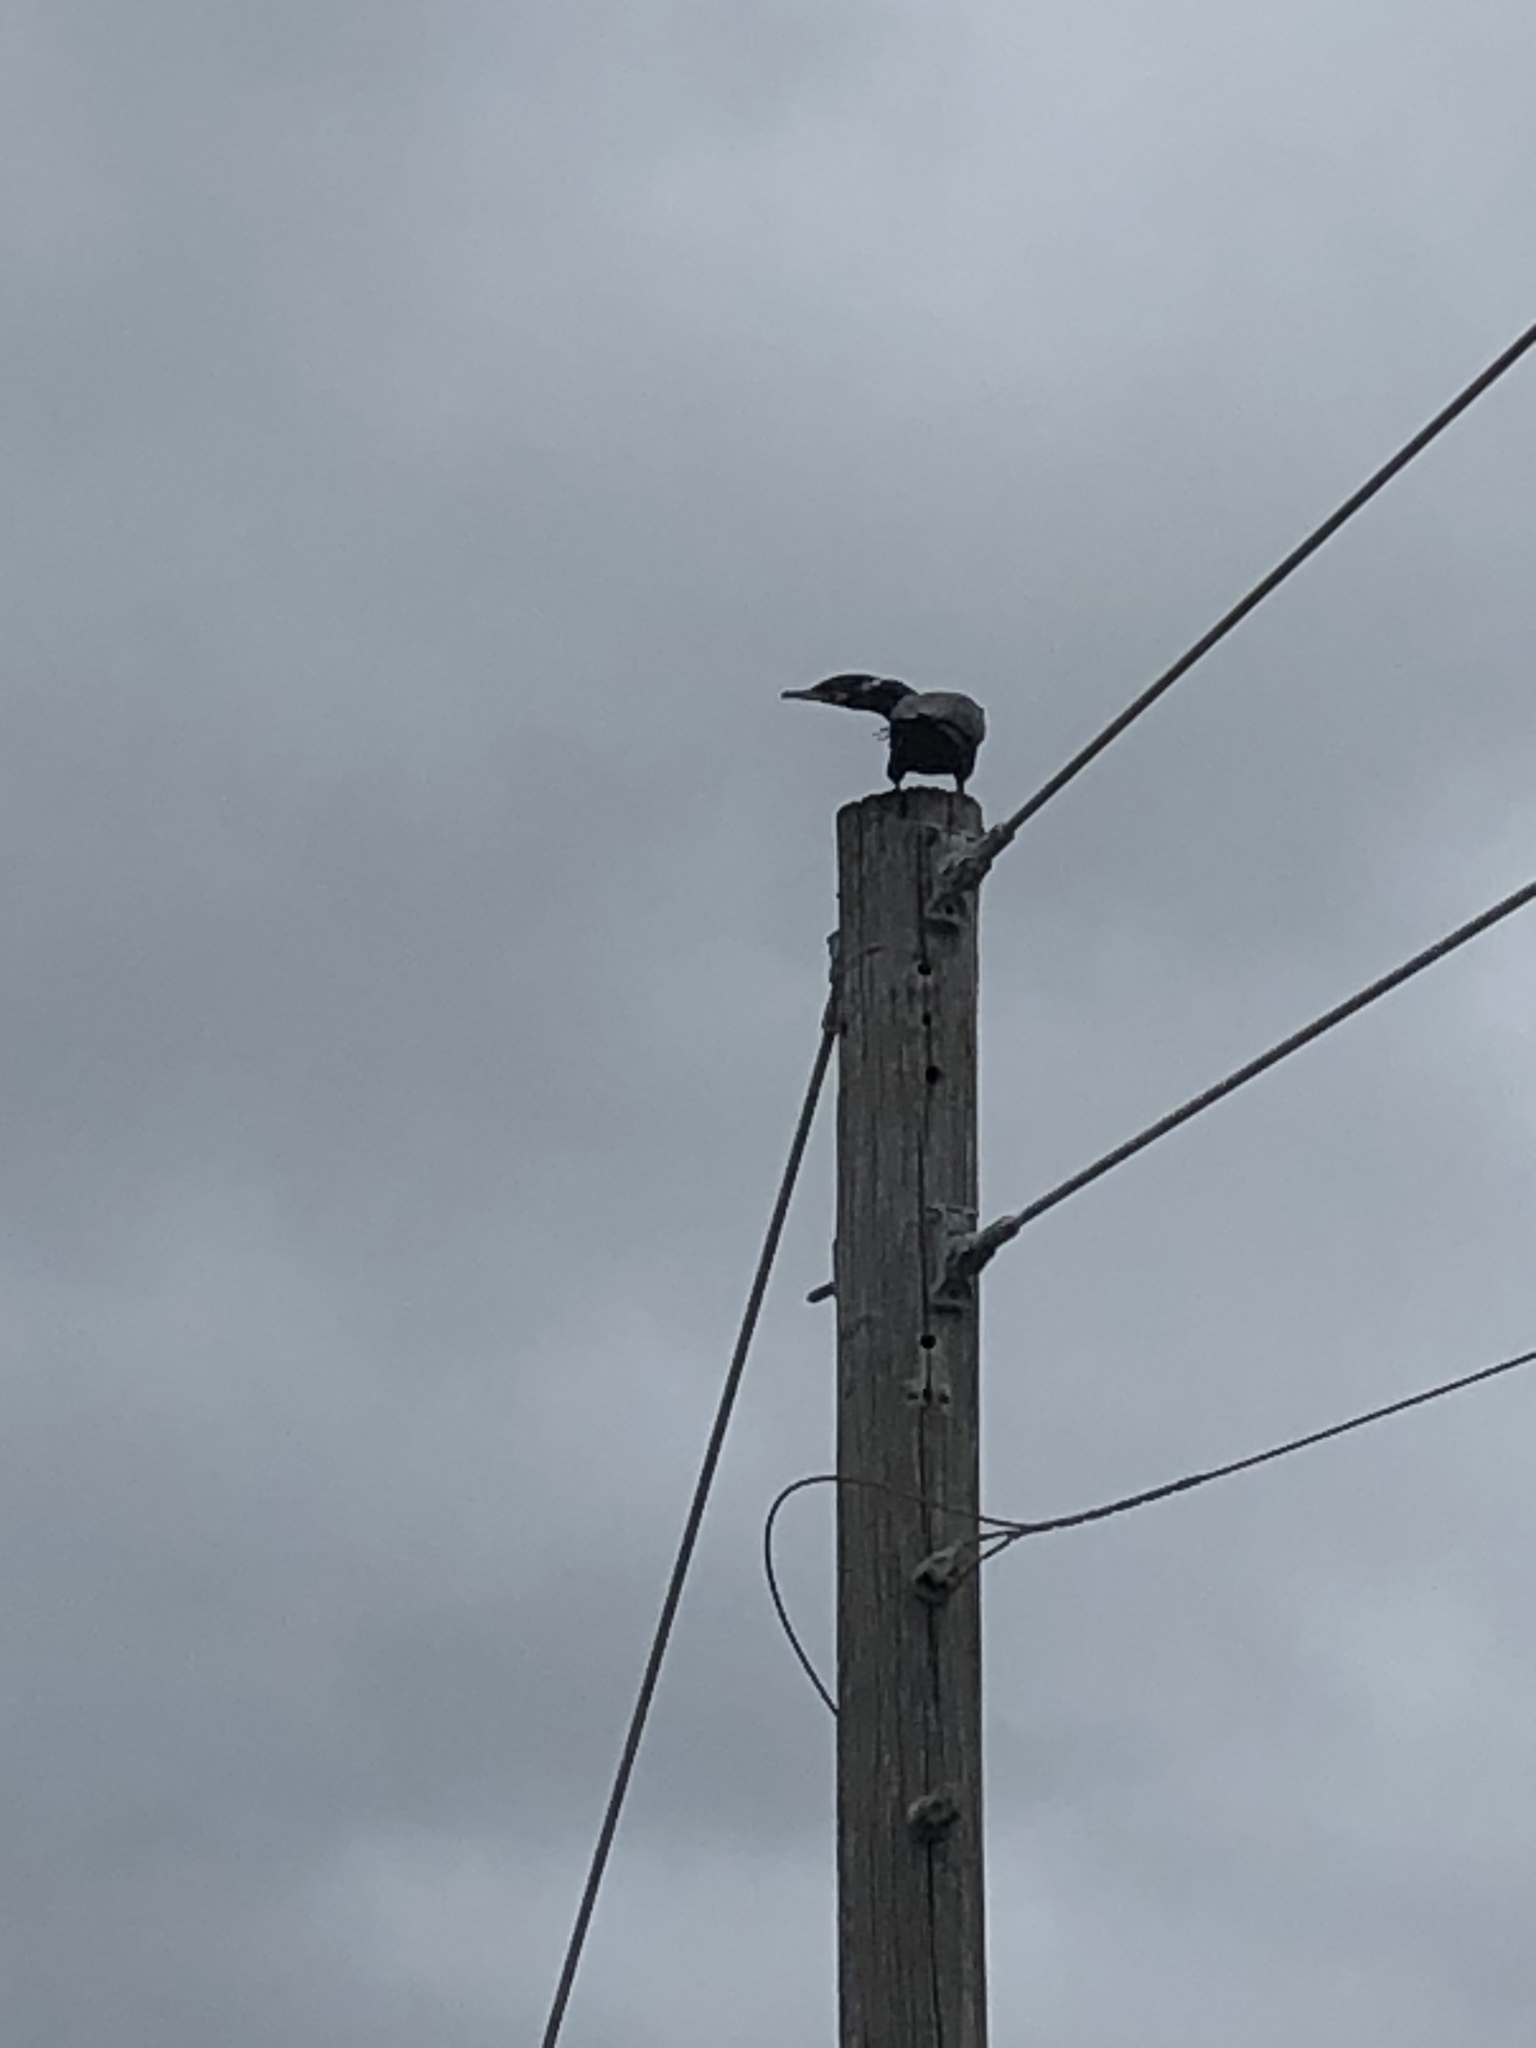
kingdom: Animalia
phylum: Chordata
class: Aves
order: Suliformes
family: Phalacrocoracidae
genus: Phalacrocorax
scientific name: Phalacrocorax brasilianus
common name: Neotropic cormorant
